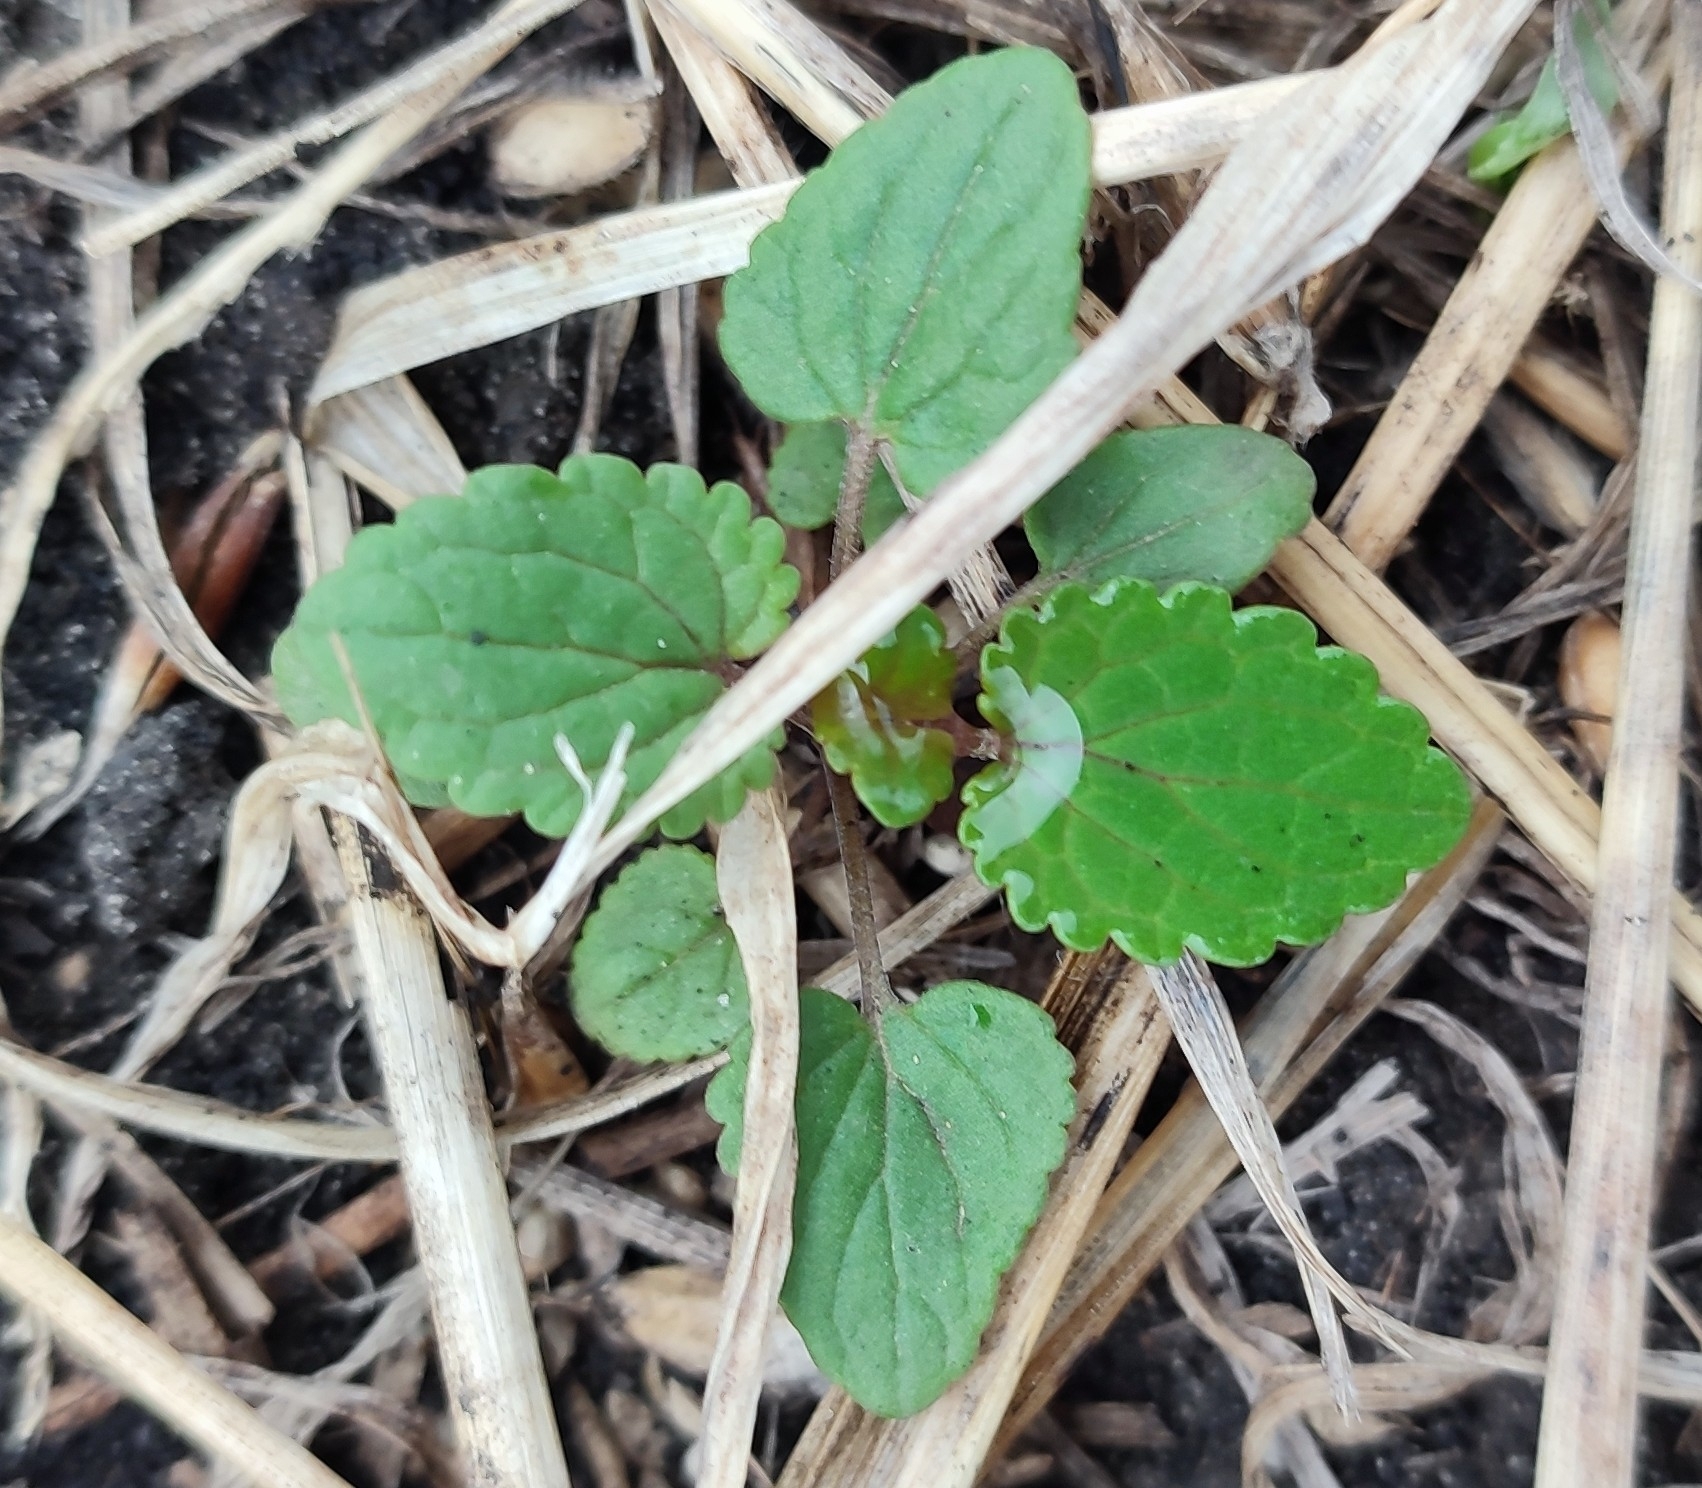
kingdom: Plantae
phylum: Tracheophyta
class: Magnoliopsida
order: Lamiales
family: Lamiaceae
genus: Dracocephalum
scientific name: Dracocephalum thymiflorum
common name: Thymeleaf dragonhead
